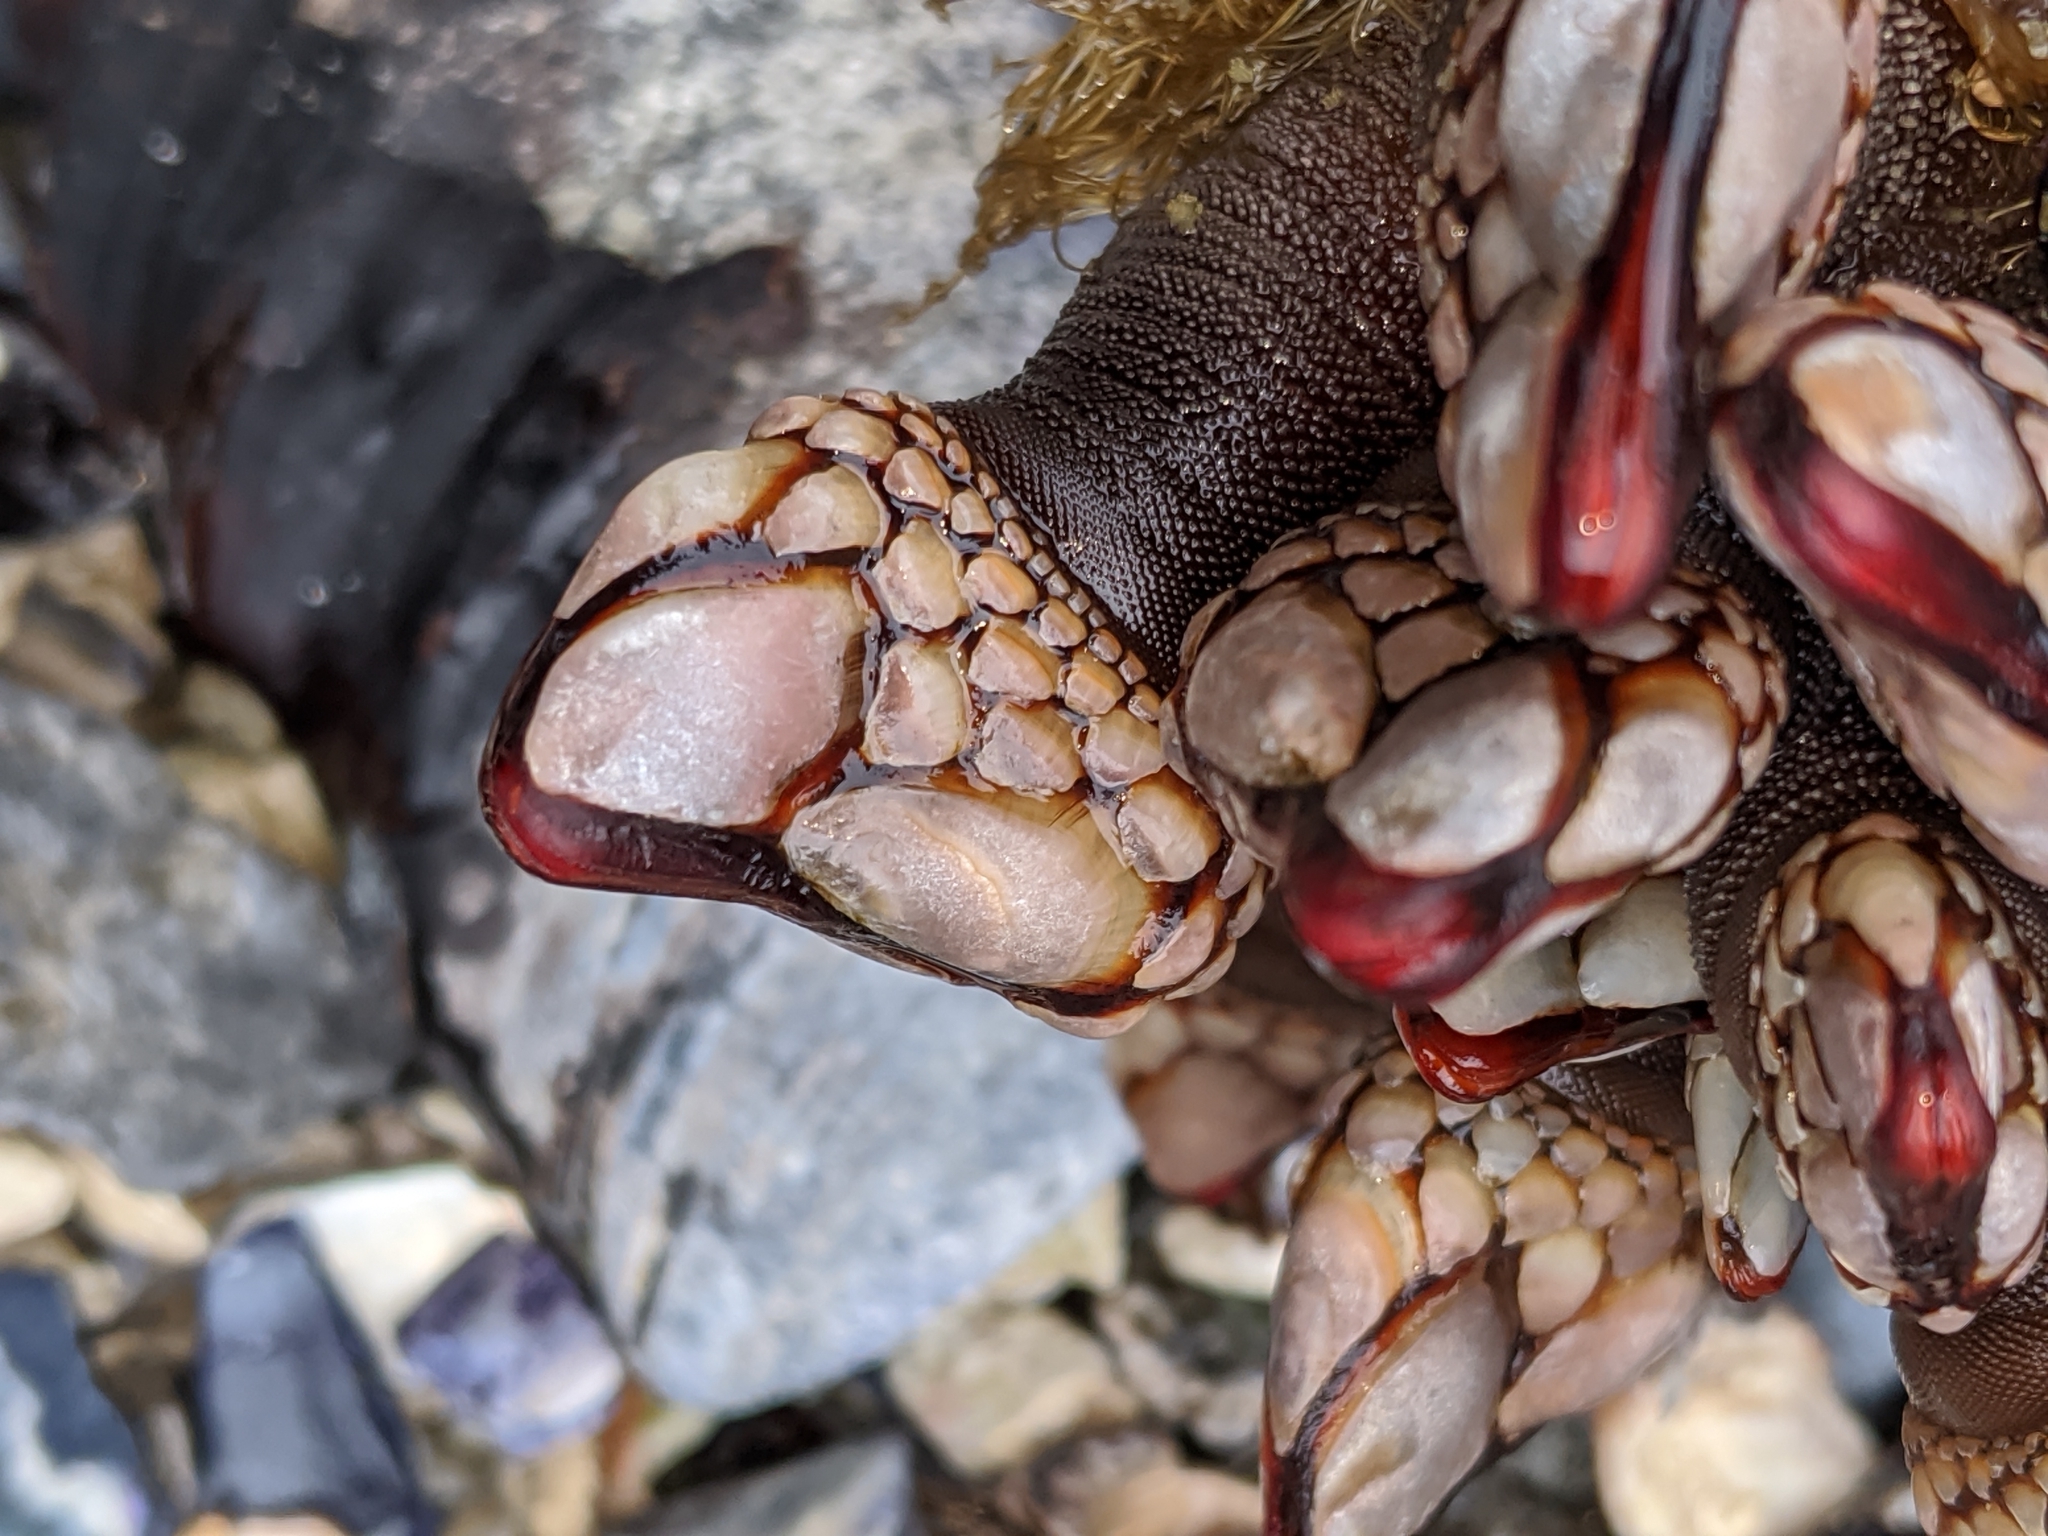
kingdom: Animalia
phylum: Arthropoda
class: Maxillopoda
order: Pedunculata
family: Pollicipedidae
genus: Pollicipes
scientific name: Pollicipes polymerus
